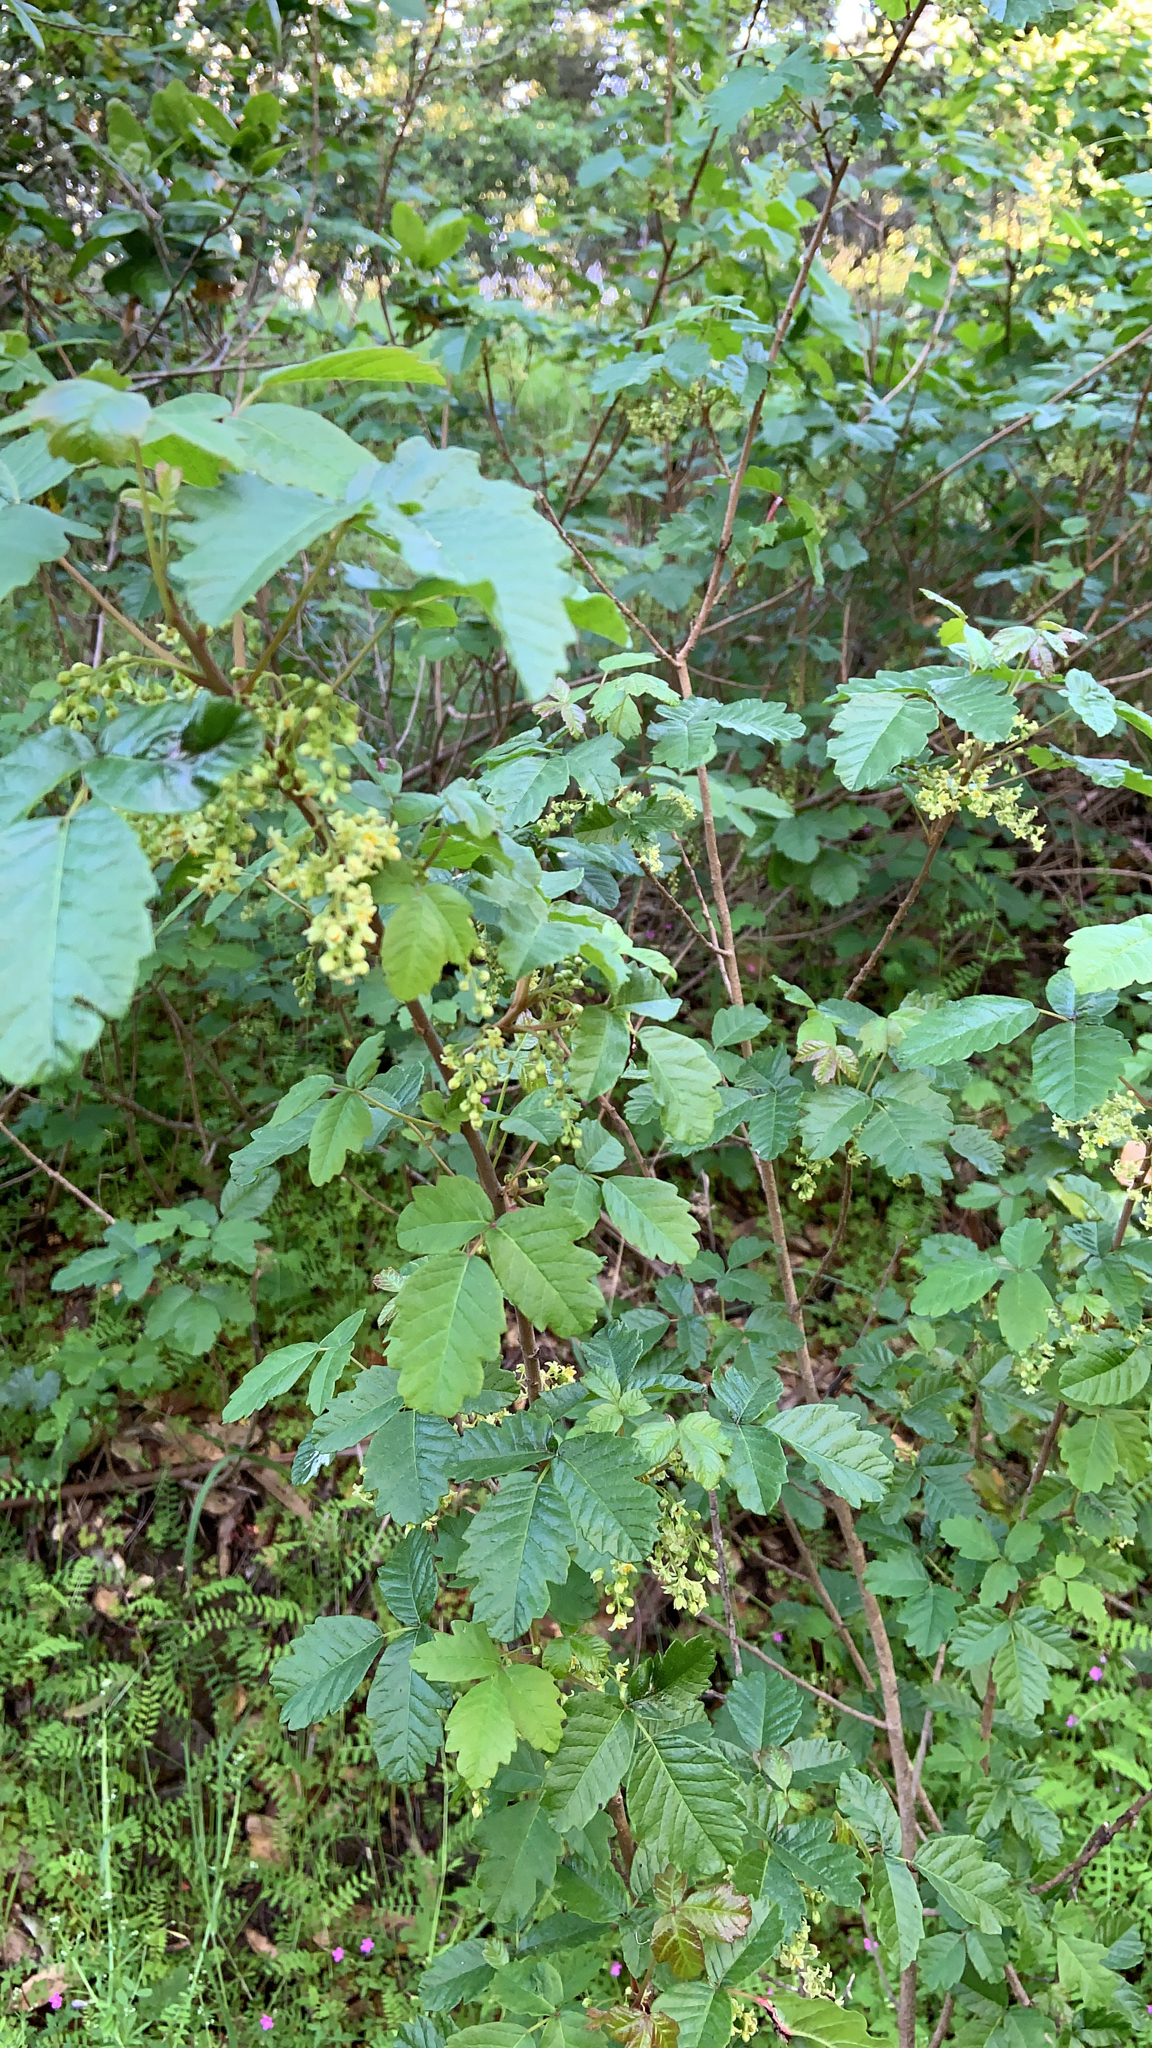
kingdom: Plantae
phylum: Tracheophyta
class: Magnoliopsida
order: Sapindales
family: Anacardiaceae
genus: Toxicodendron
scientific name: Toxicodendron diversilobum
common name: Pacific poison-oak
